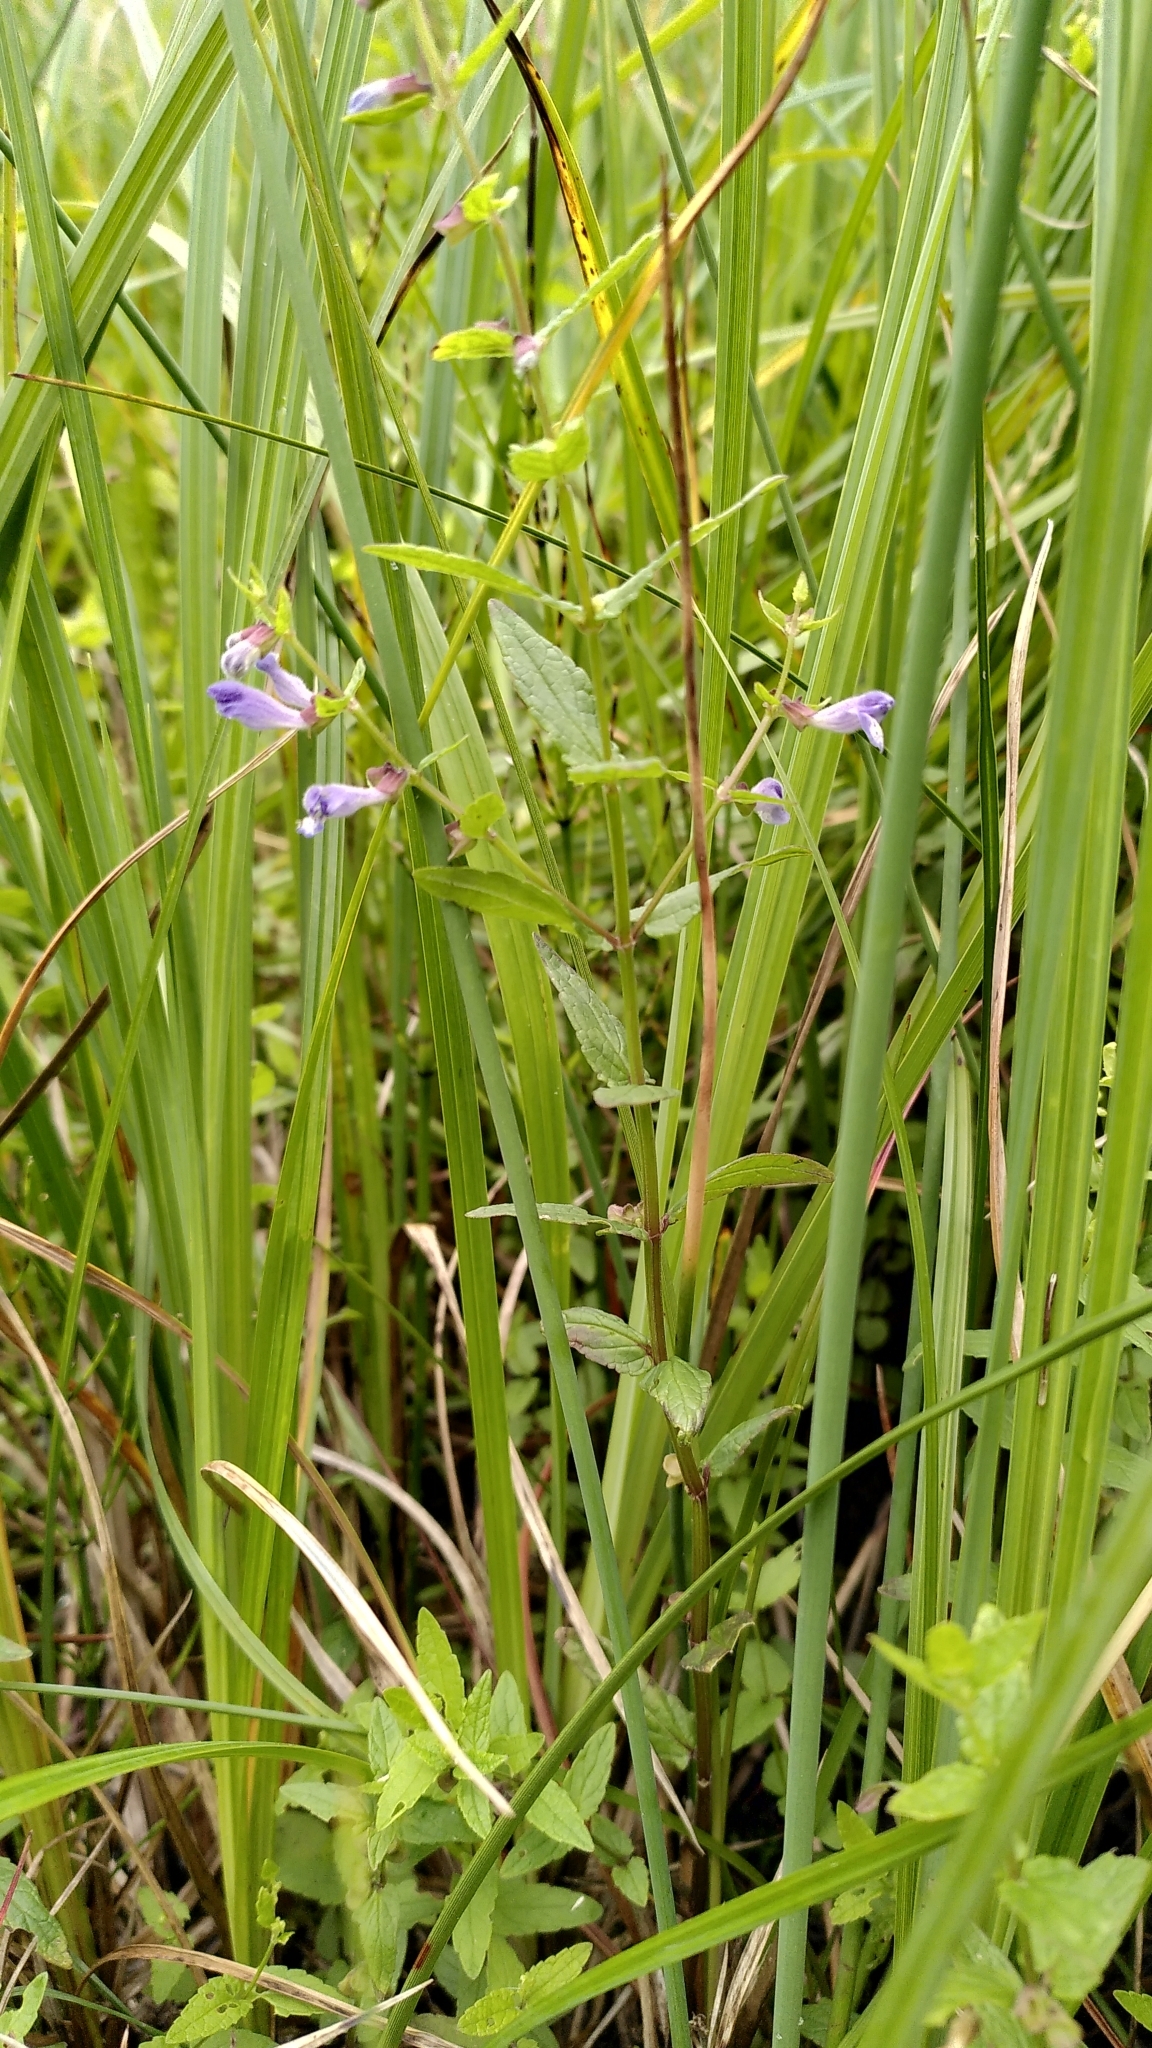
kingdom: Plantae
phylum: Tracheophyta
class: Magnoliopsida
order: Lamiales
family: Lamiaceae
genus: Scutellaria
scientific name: Scutellaria galericulata
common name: Skullcap
